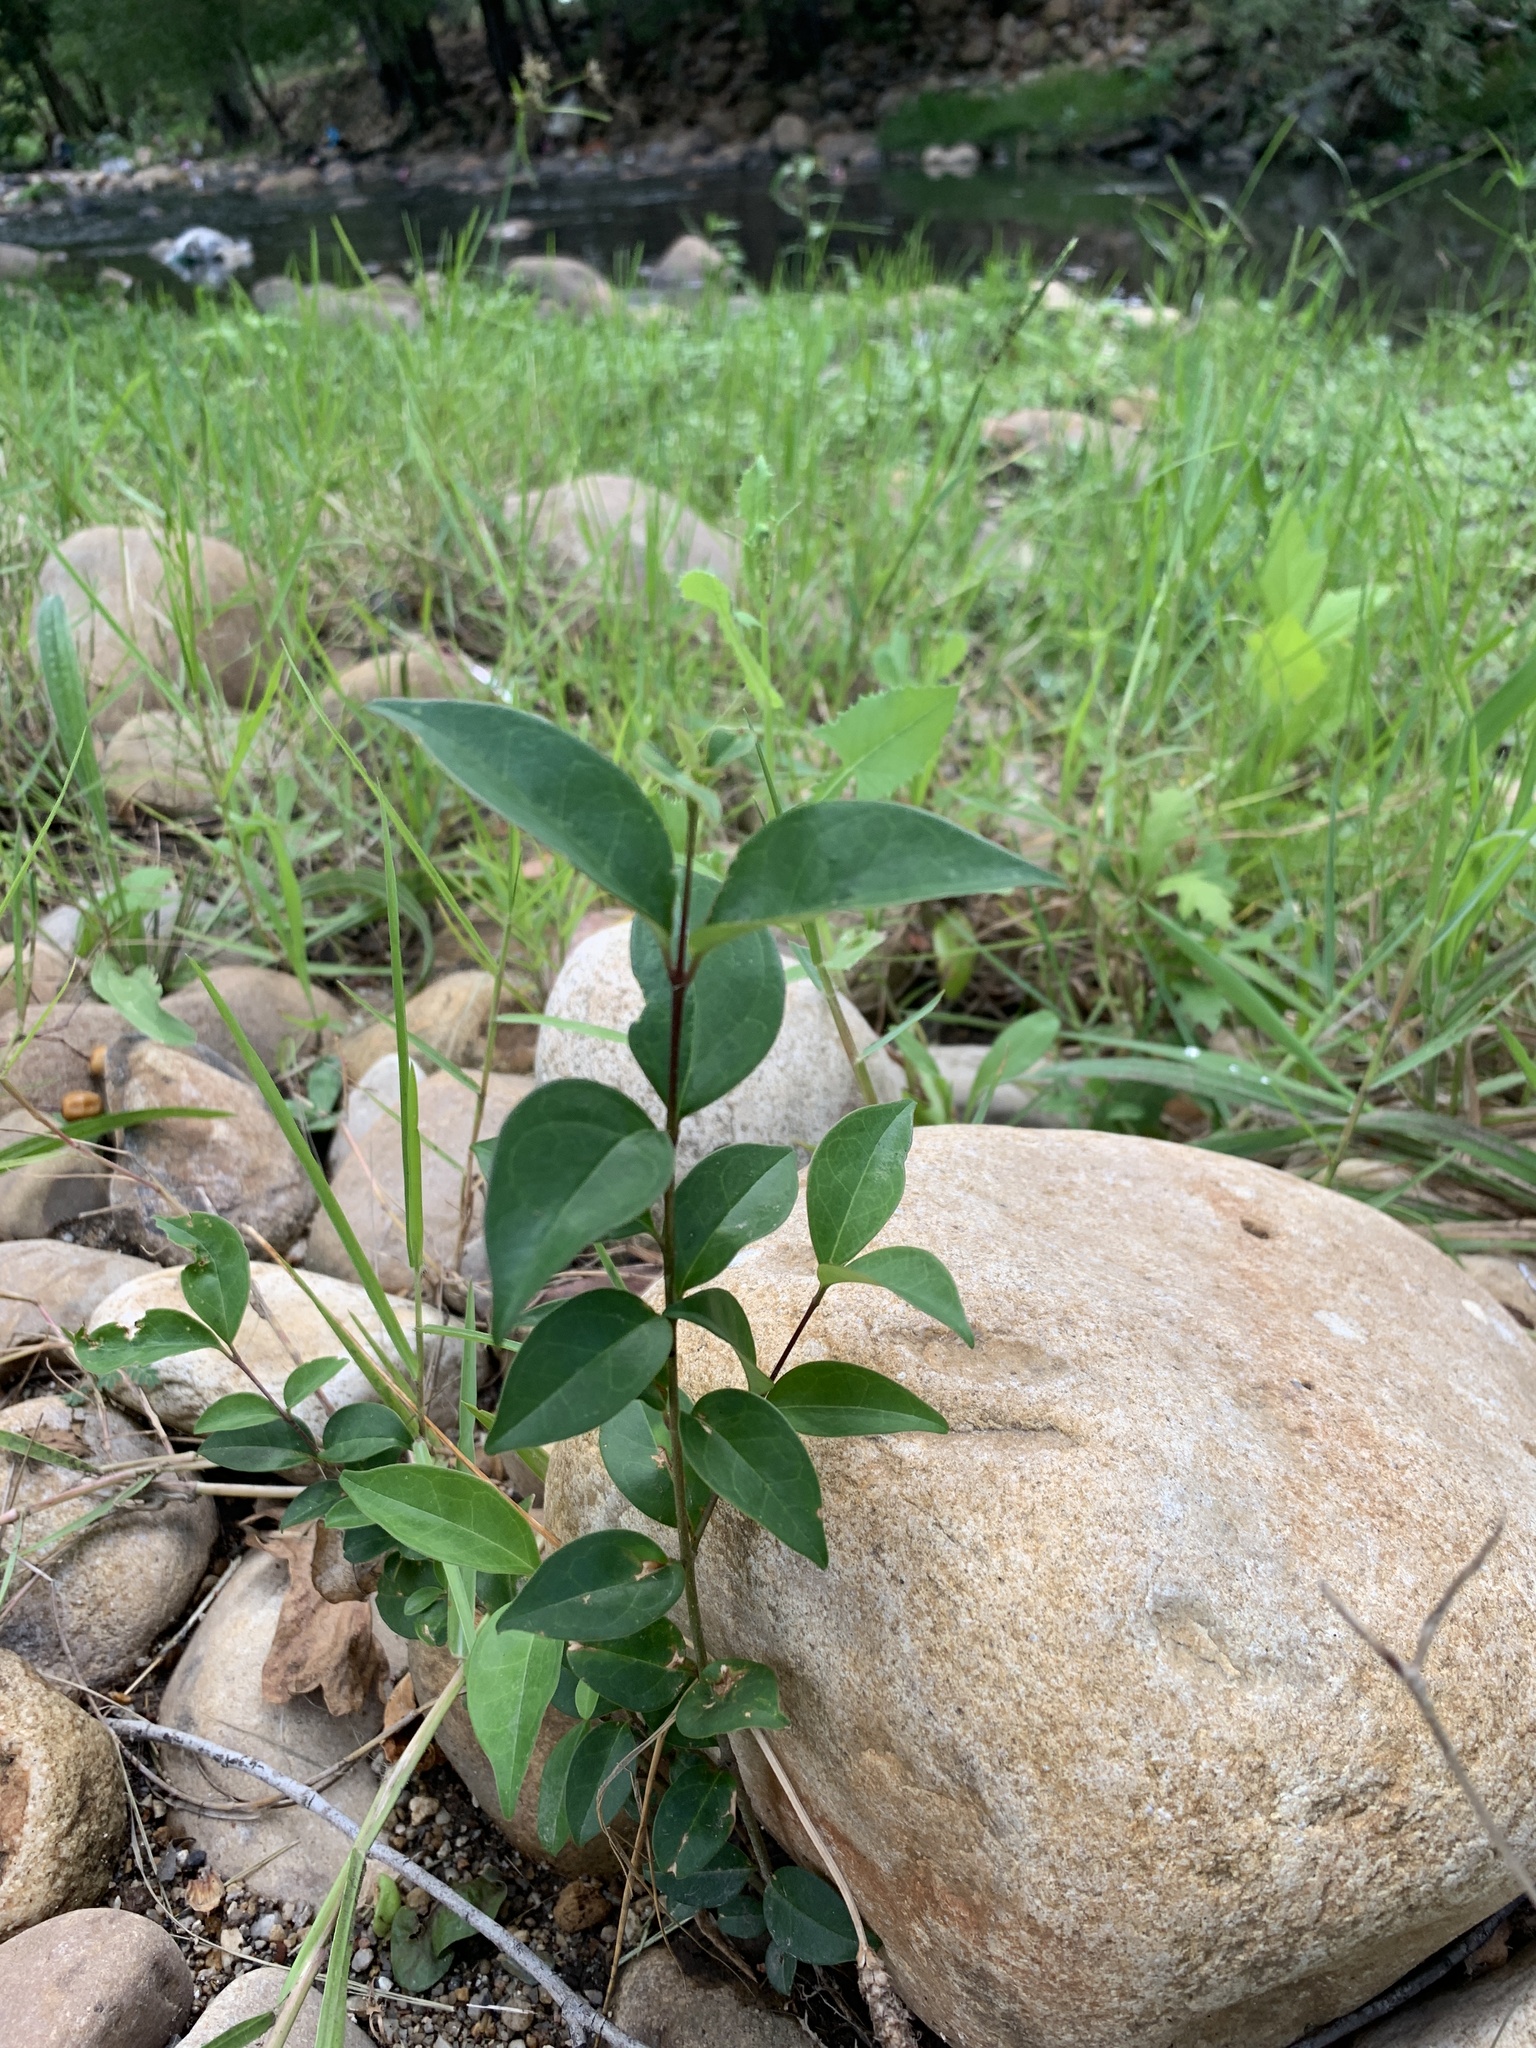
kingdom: Plantae
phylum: Tracheophyta
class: Magnoliopsida
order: Lamiales
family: Oleaceae
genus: Ligustrum
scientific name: Ligustrum lucidum
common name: Glossy privet
